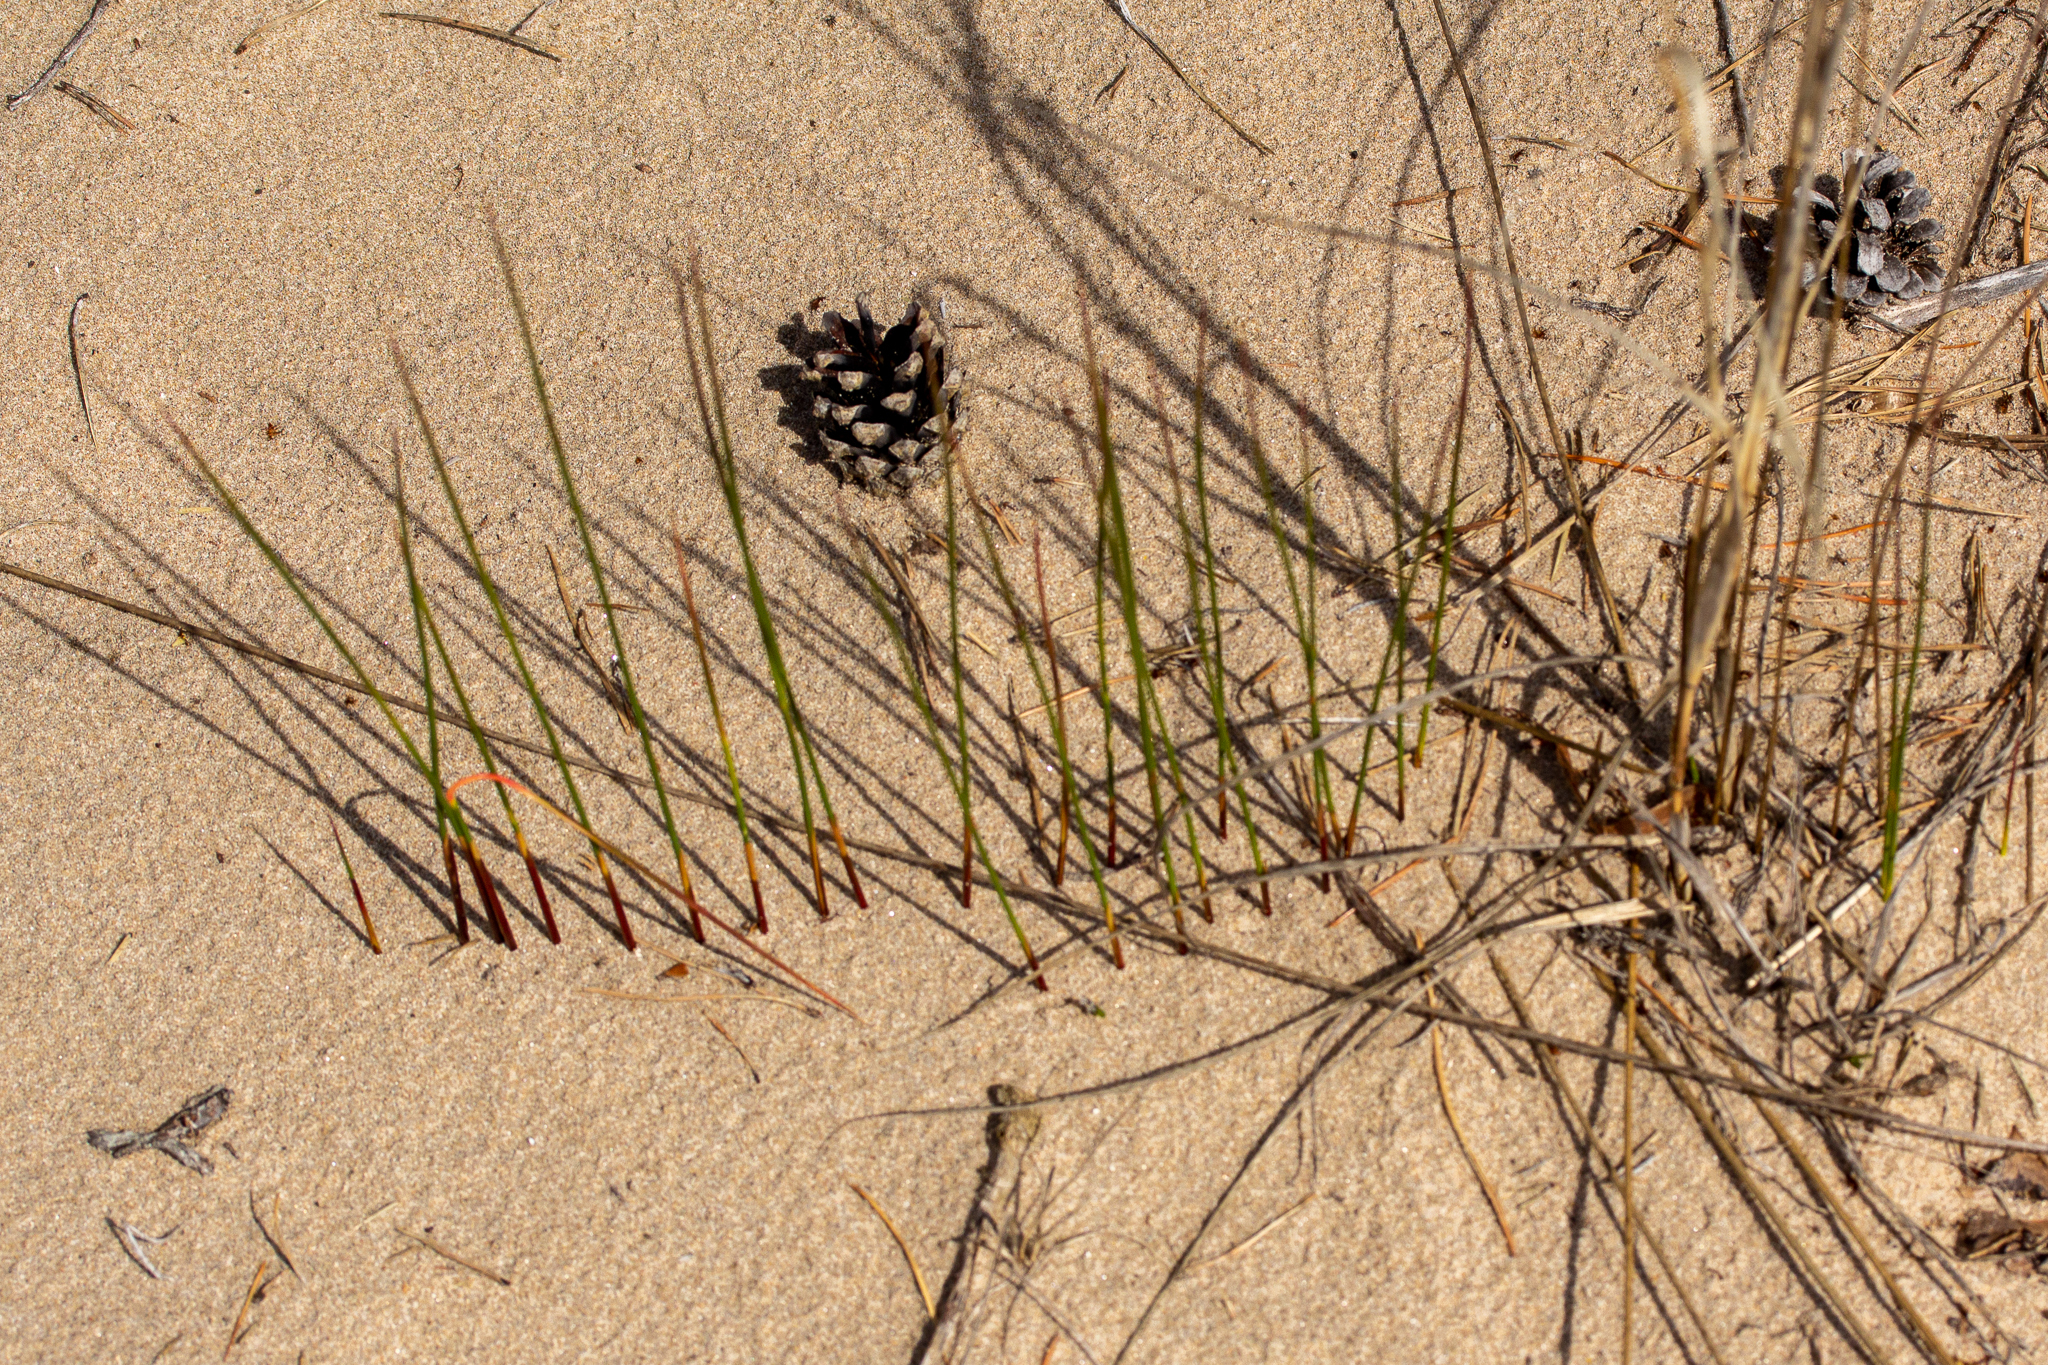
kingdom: Plantae
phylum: Tracheophyta
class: Liliopsida
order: Poales
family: Juncaceae
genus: Juncus
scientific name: Juncus balticus
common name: Baltic rush
